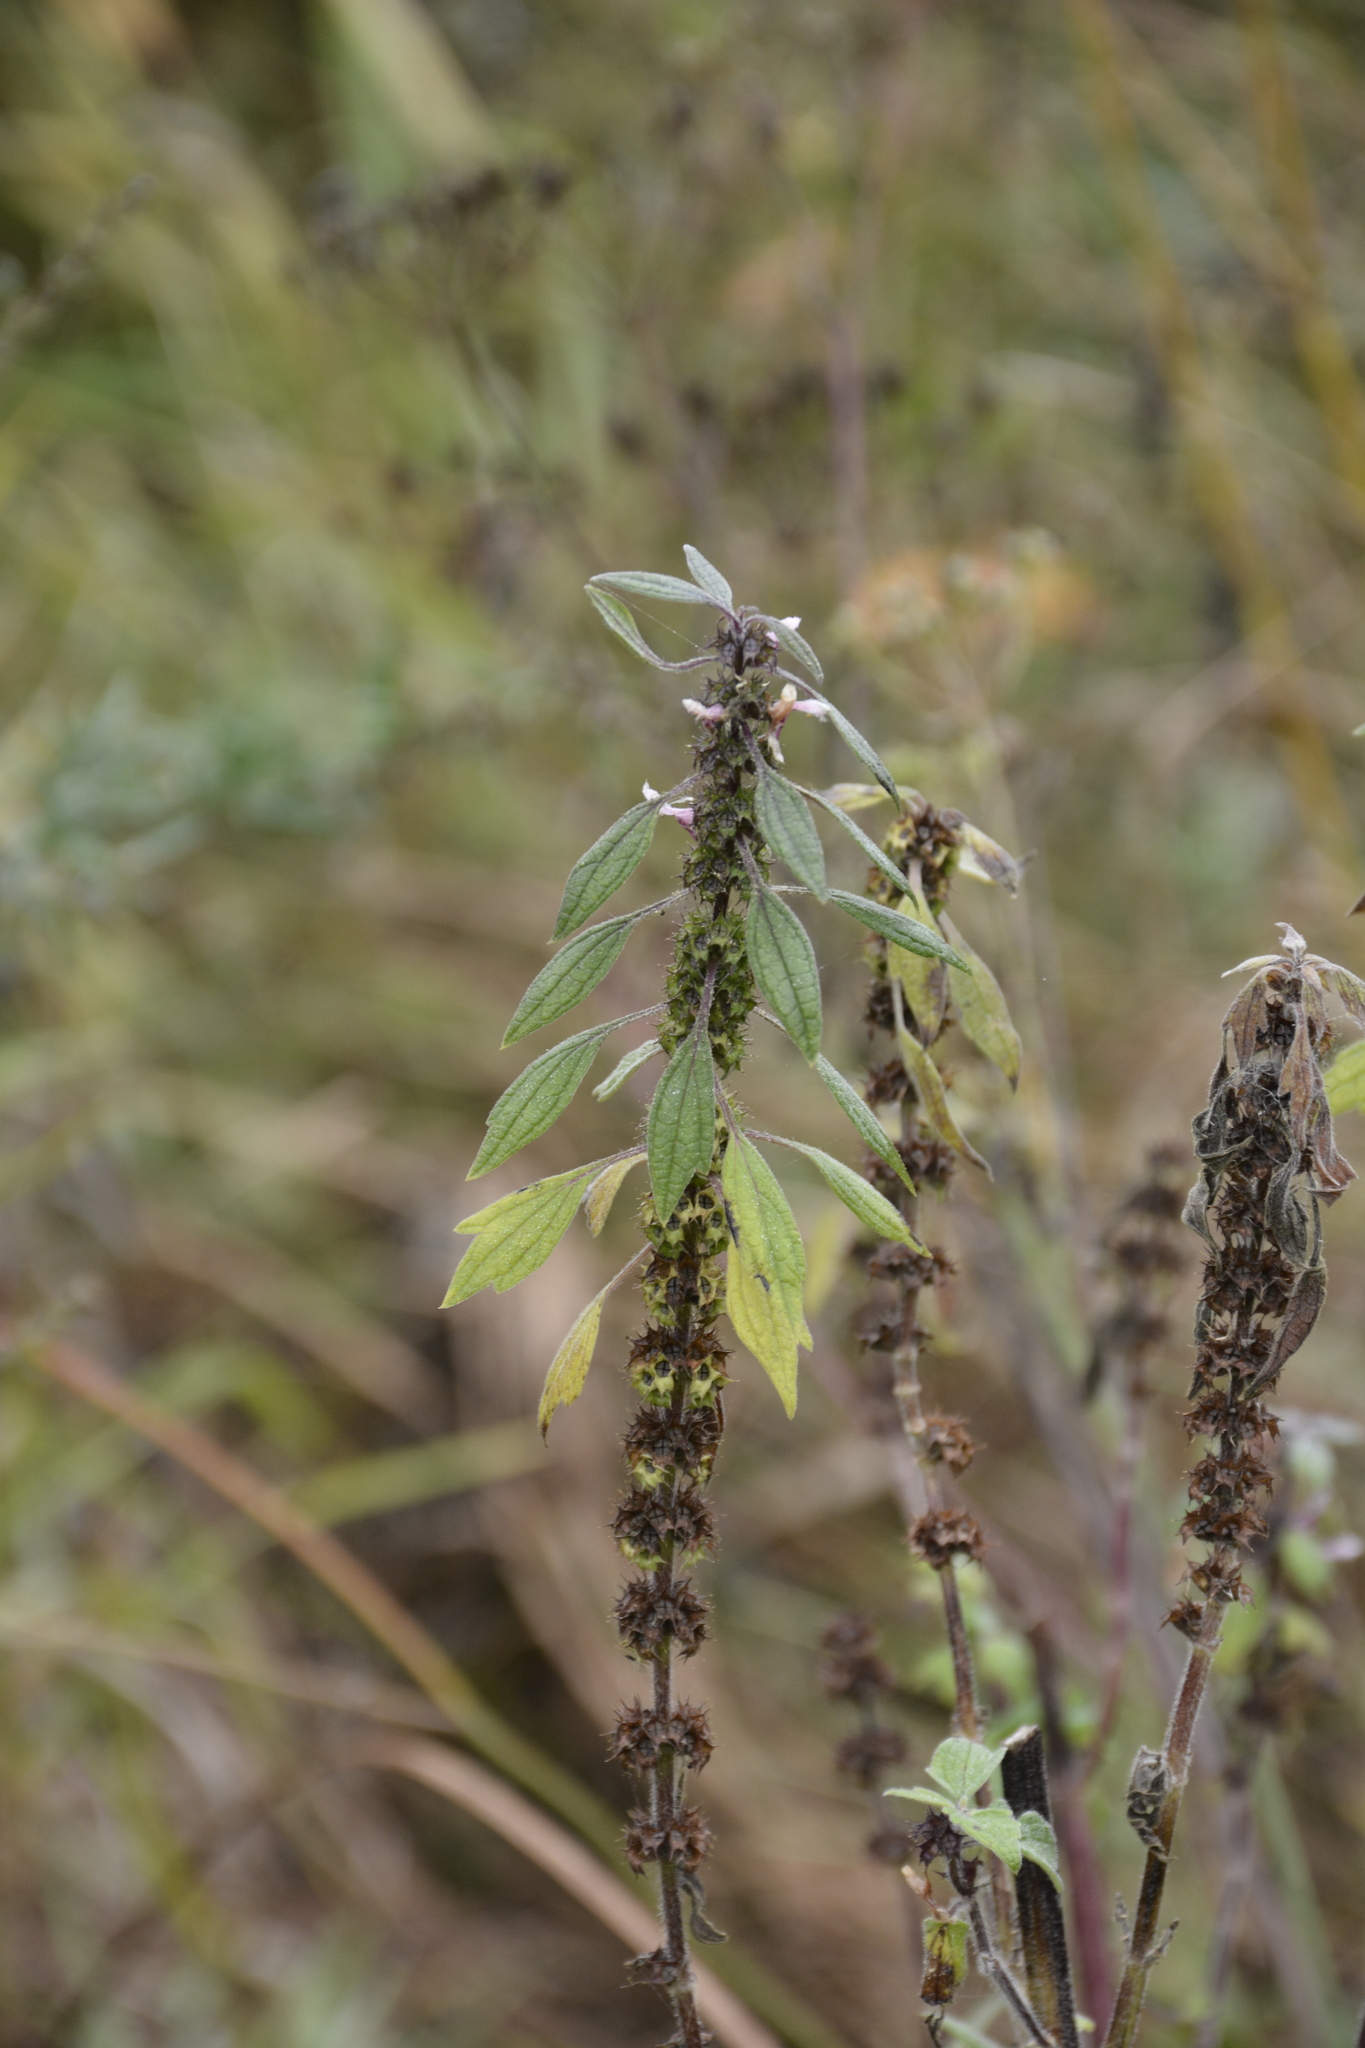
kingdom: Plantae
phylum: Tracheophyta
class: Magnoliopsida
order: Lamiales
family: Lamiaceae
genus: Leonurus
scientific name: Leonurus quinquelobatus
